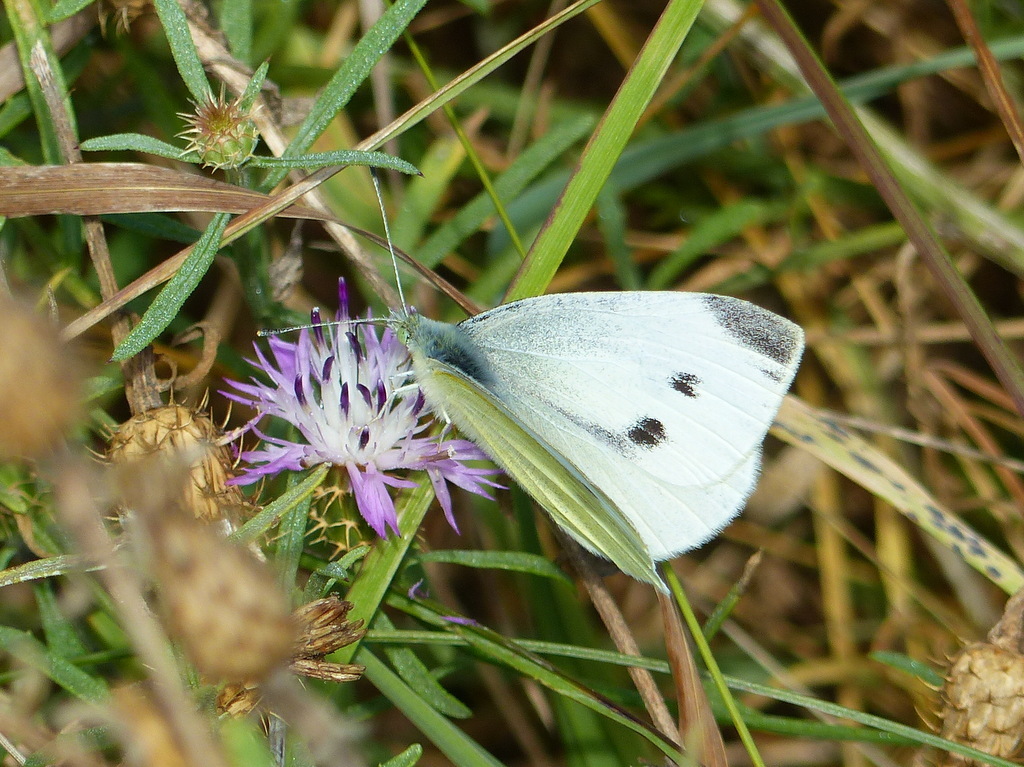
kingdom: Animalia
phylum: Arthropoda
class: Insecta
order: Lepidoptera
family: Pieridae
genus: Pieris
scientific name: Pieris rapae
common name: Small white
